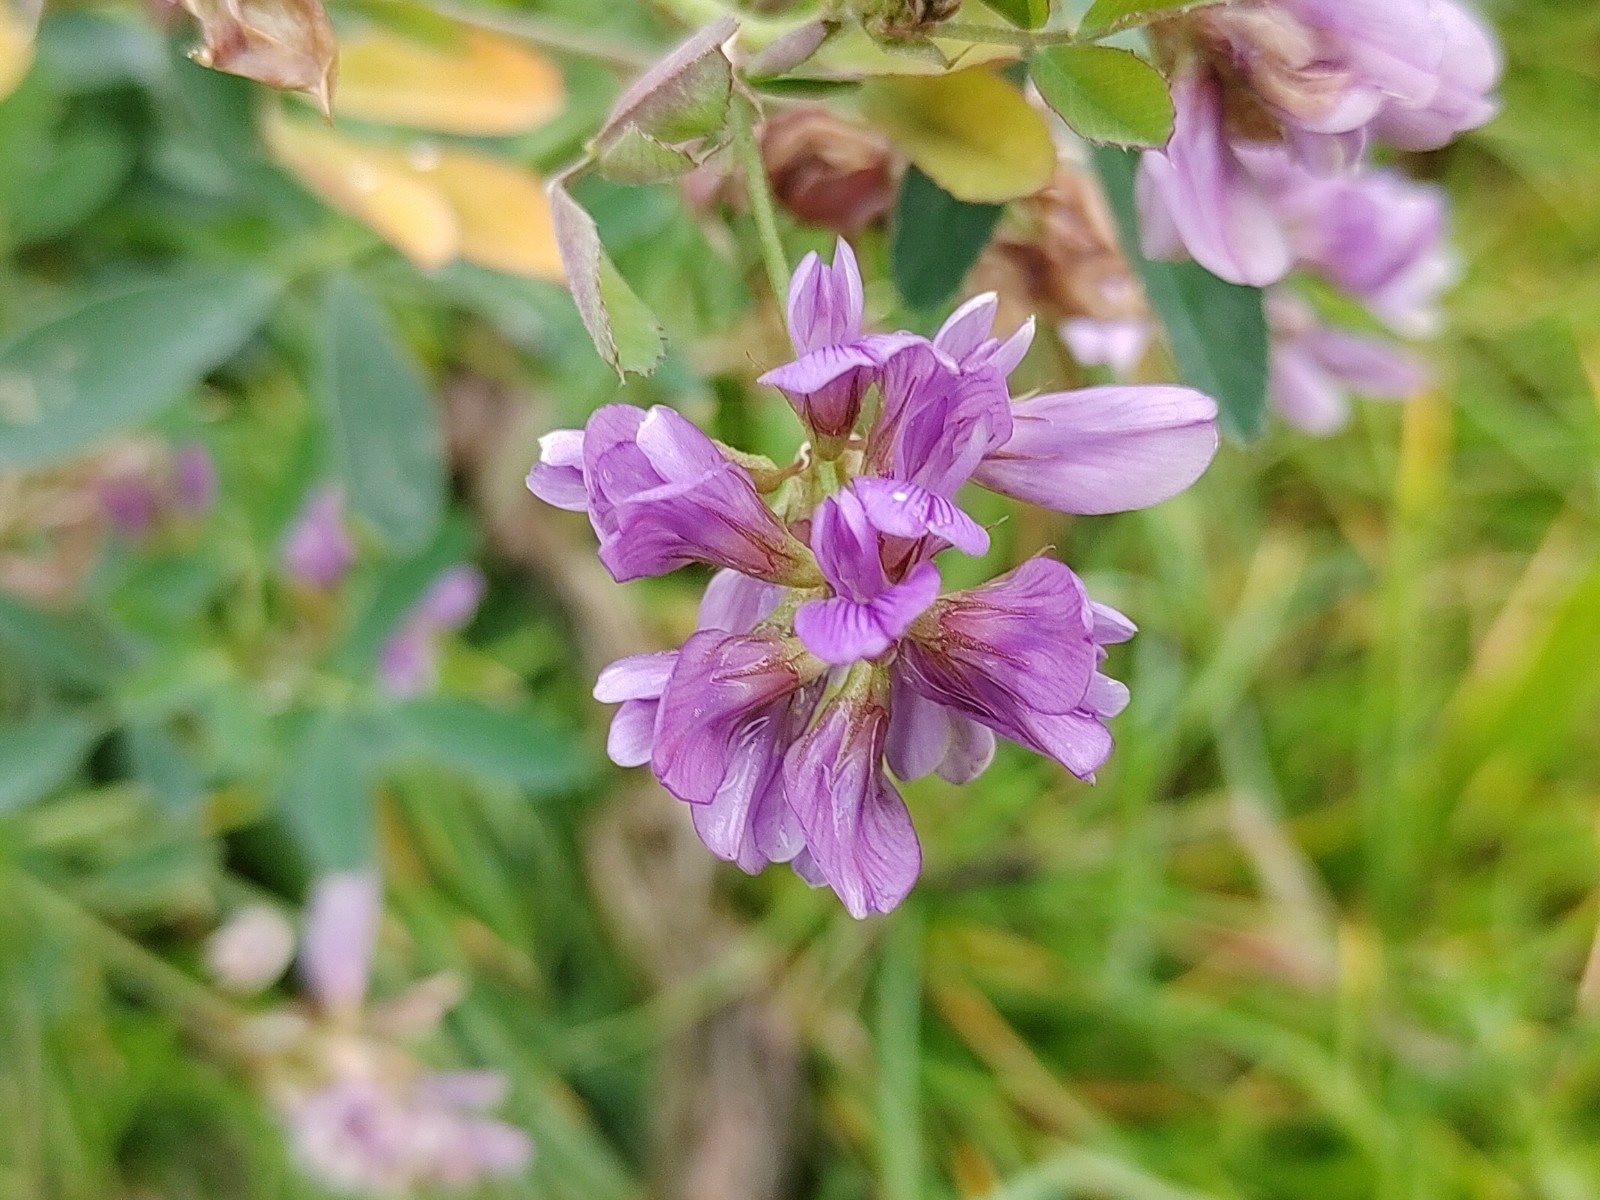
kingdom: Plantae
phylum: Tracheophyta
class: Magnoliopsida
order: Fabales
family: Fabaceae
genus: Medicago
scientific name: Medicago sativa
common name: Alfalfa
